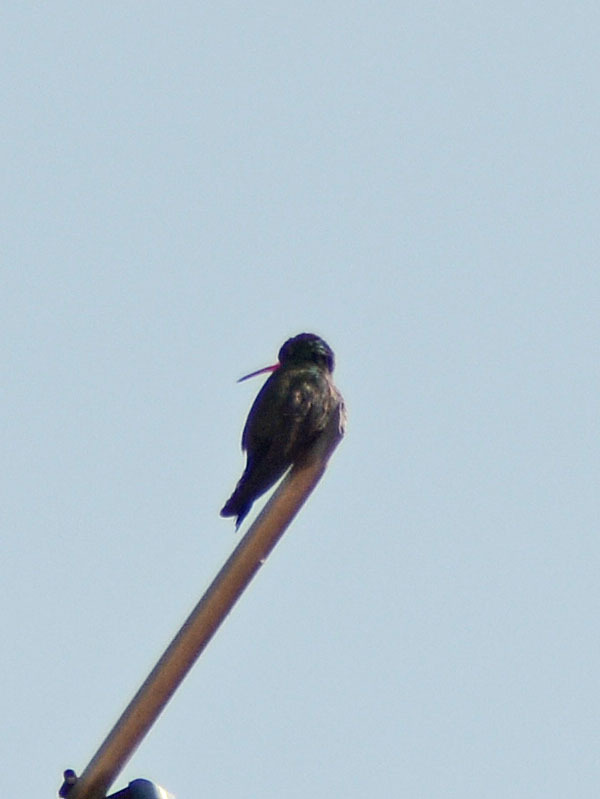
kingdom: Animalia
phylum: Chordata
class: Aves
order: Apodiformes
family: Trochilidae
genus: Cynanthus
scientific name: Cynanthus latirostris
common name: Broad-billed hummingbird
